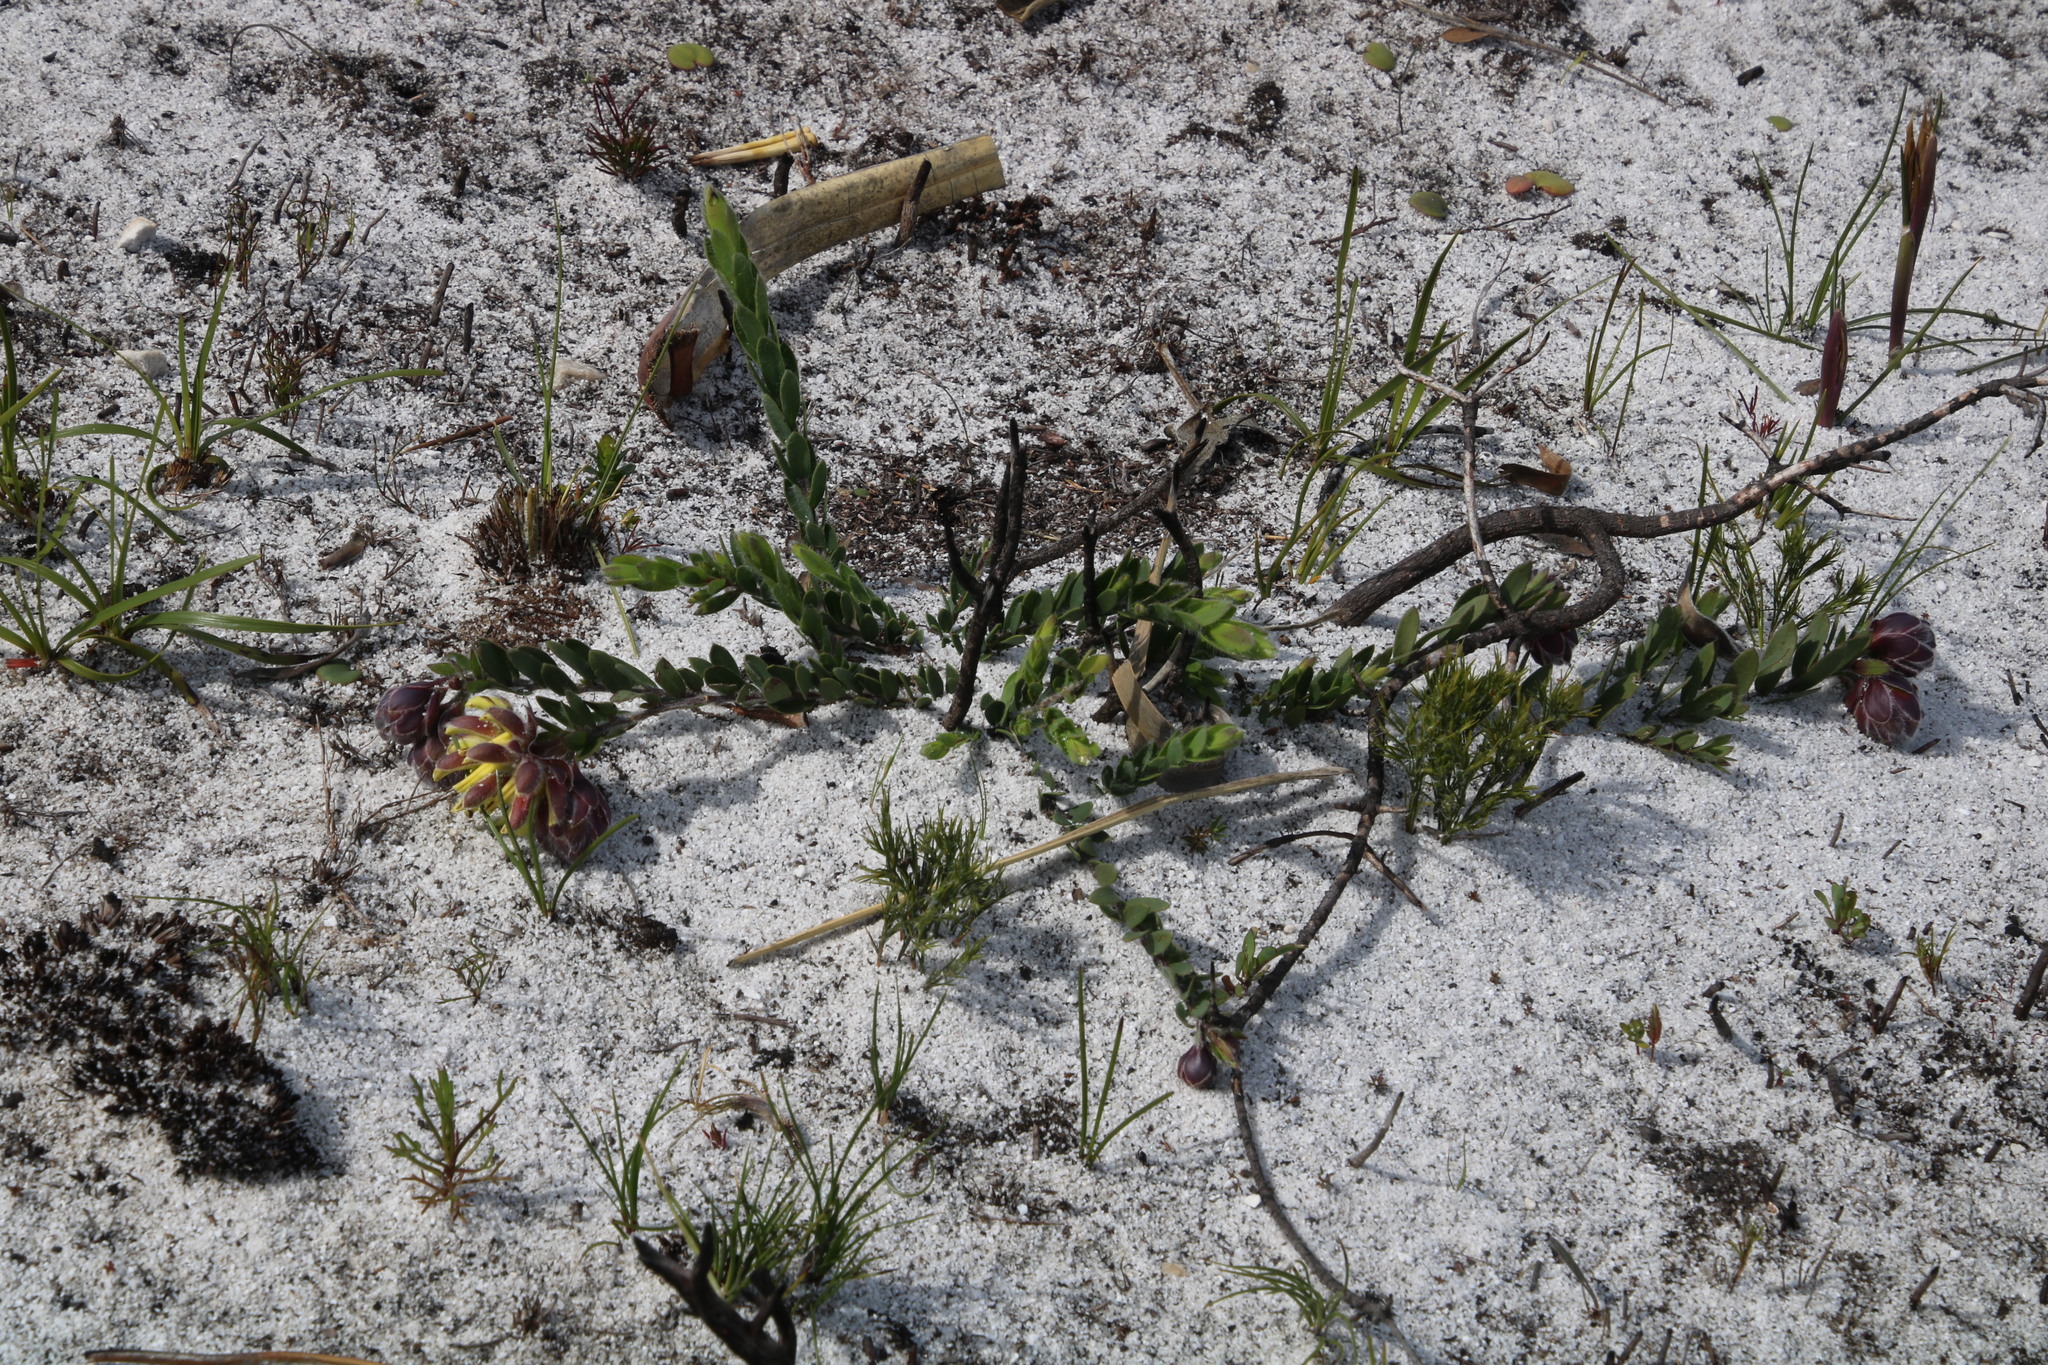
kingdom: Plantae
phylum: Tracheophyta
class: Magnoliopsida
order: Fabales
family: Fabaceae
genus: Liparia
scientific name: Liparia parva
